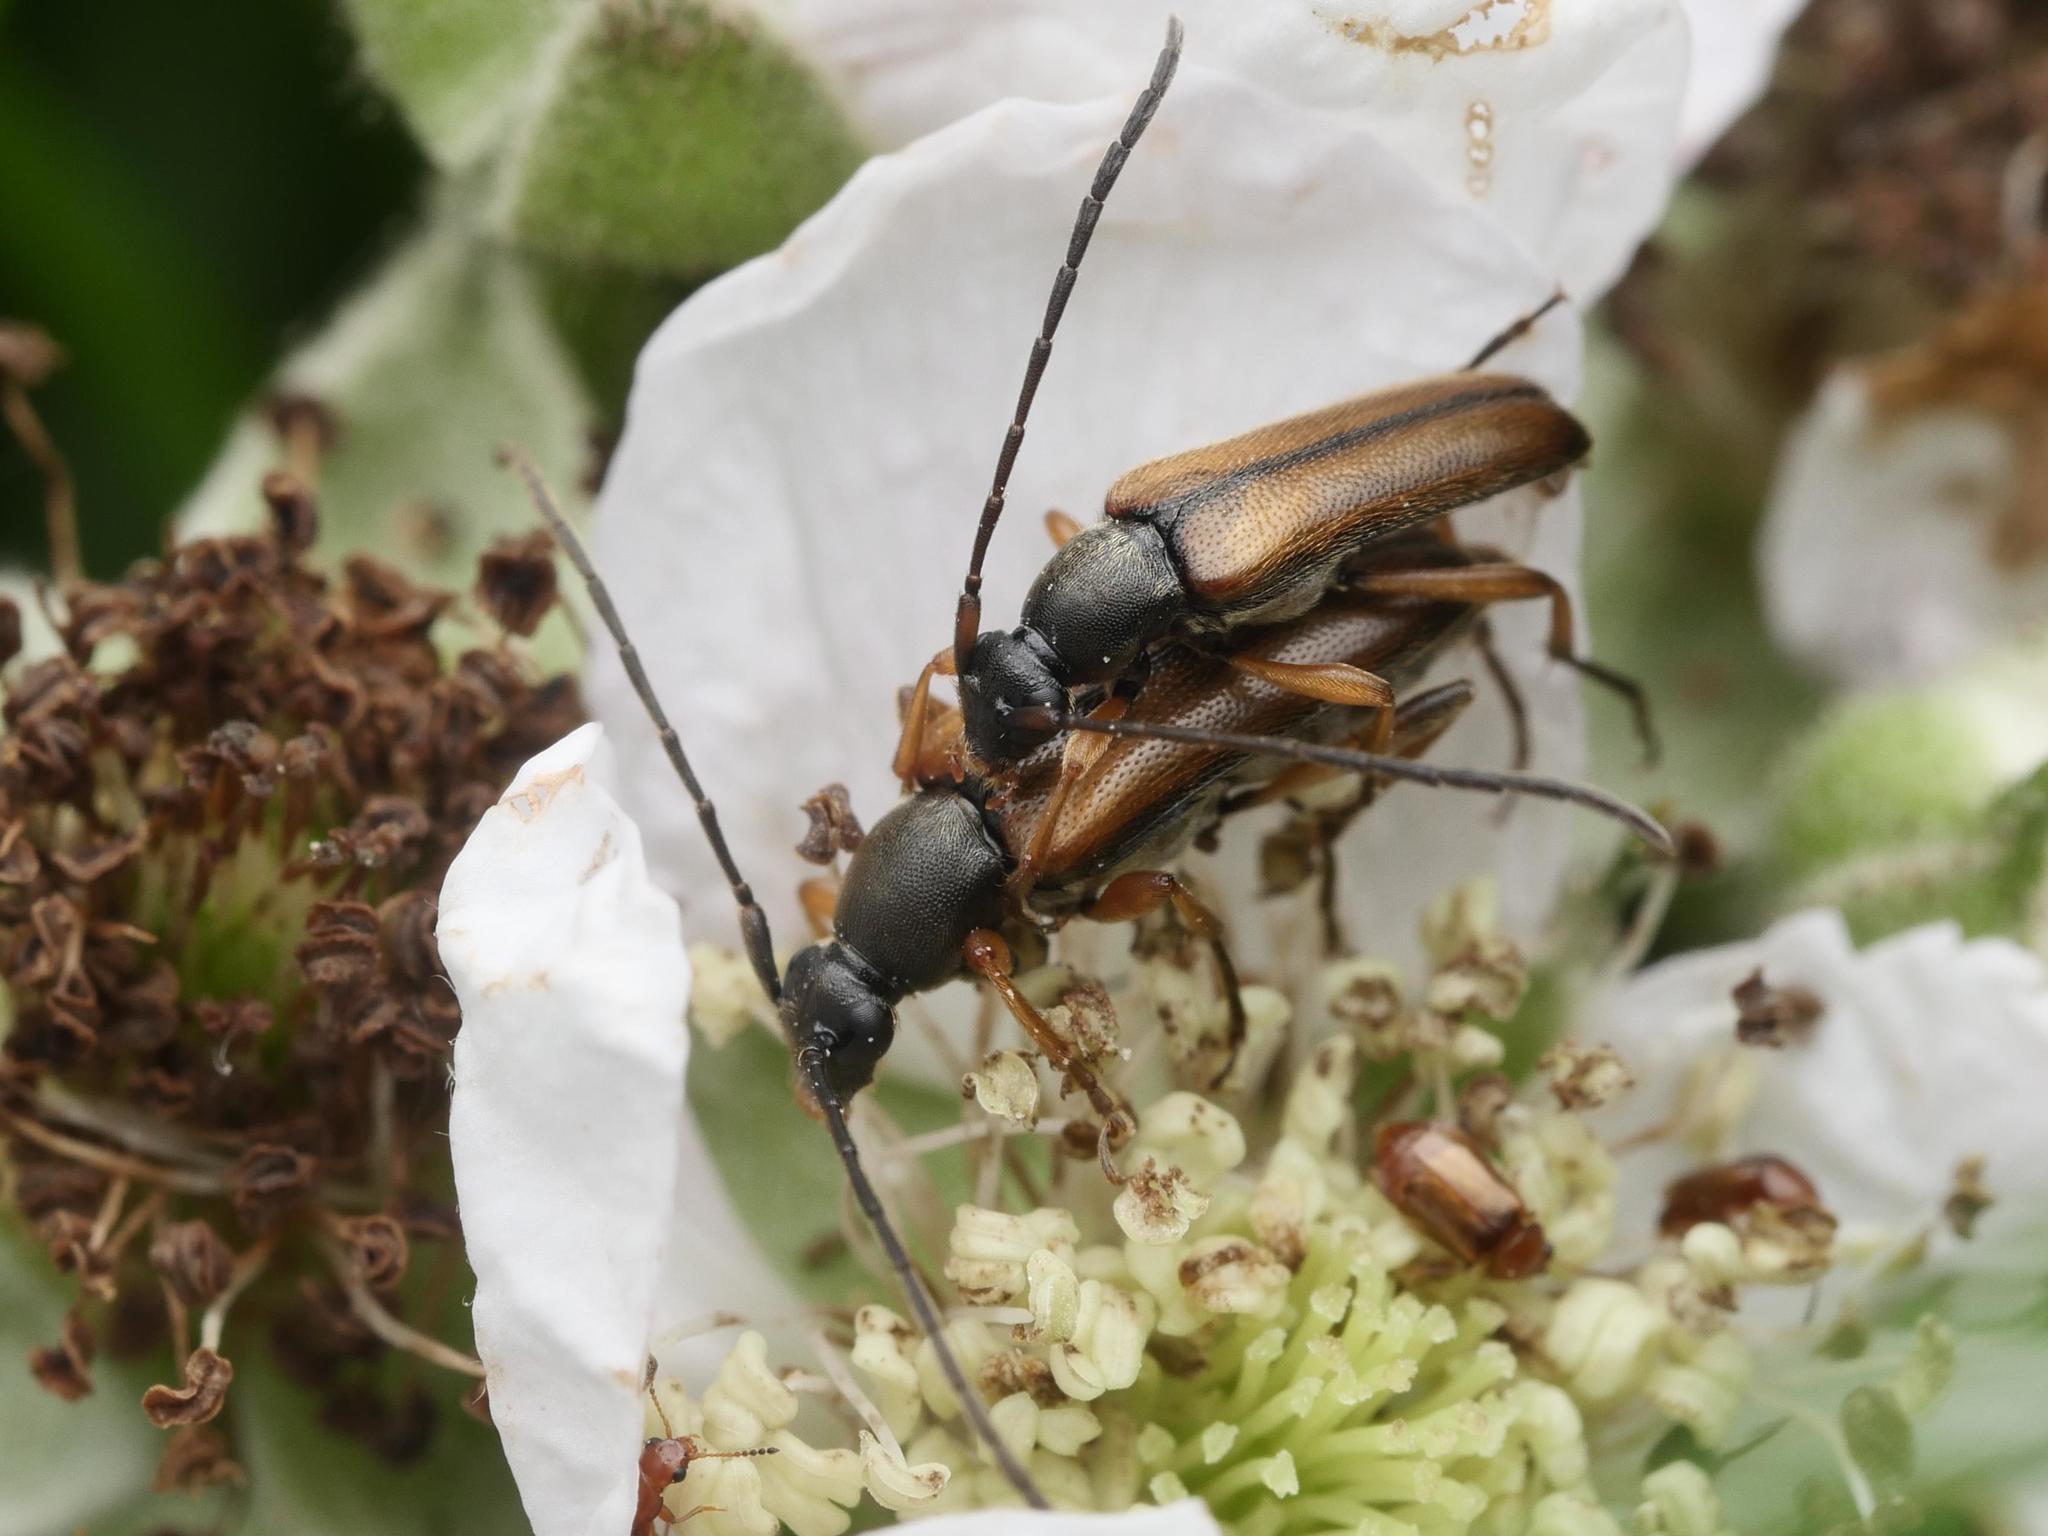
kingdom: Animalia
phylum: Arthropoda
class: Insecta
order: Coleoptera
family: Cerambycidae
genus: Alosterna
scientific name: Alosterna tabacicolor
